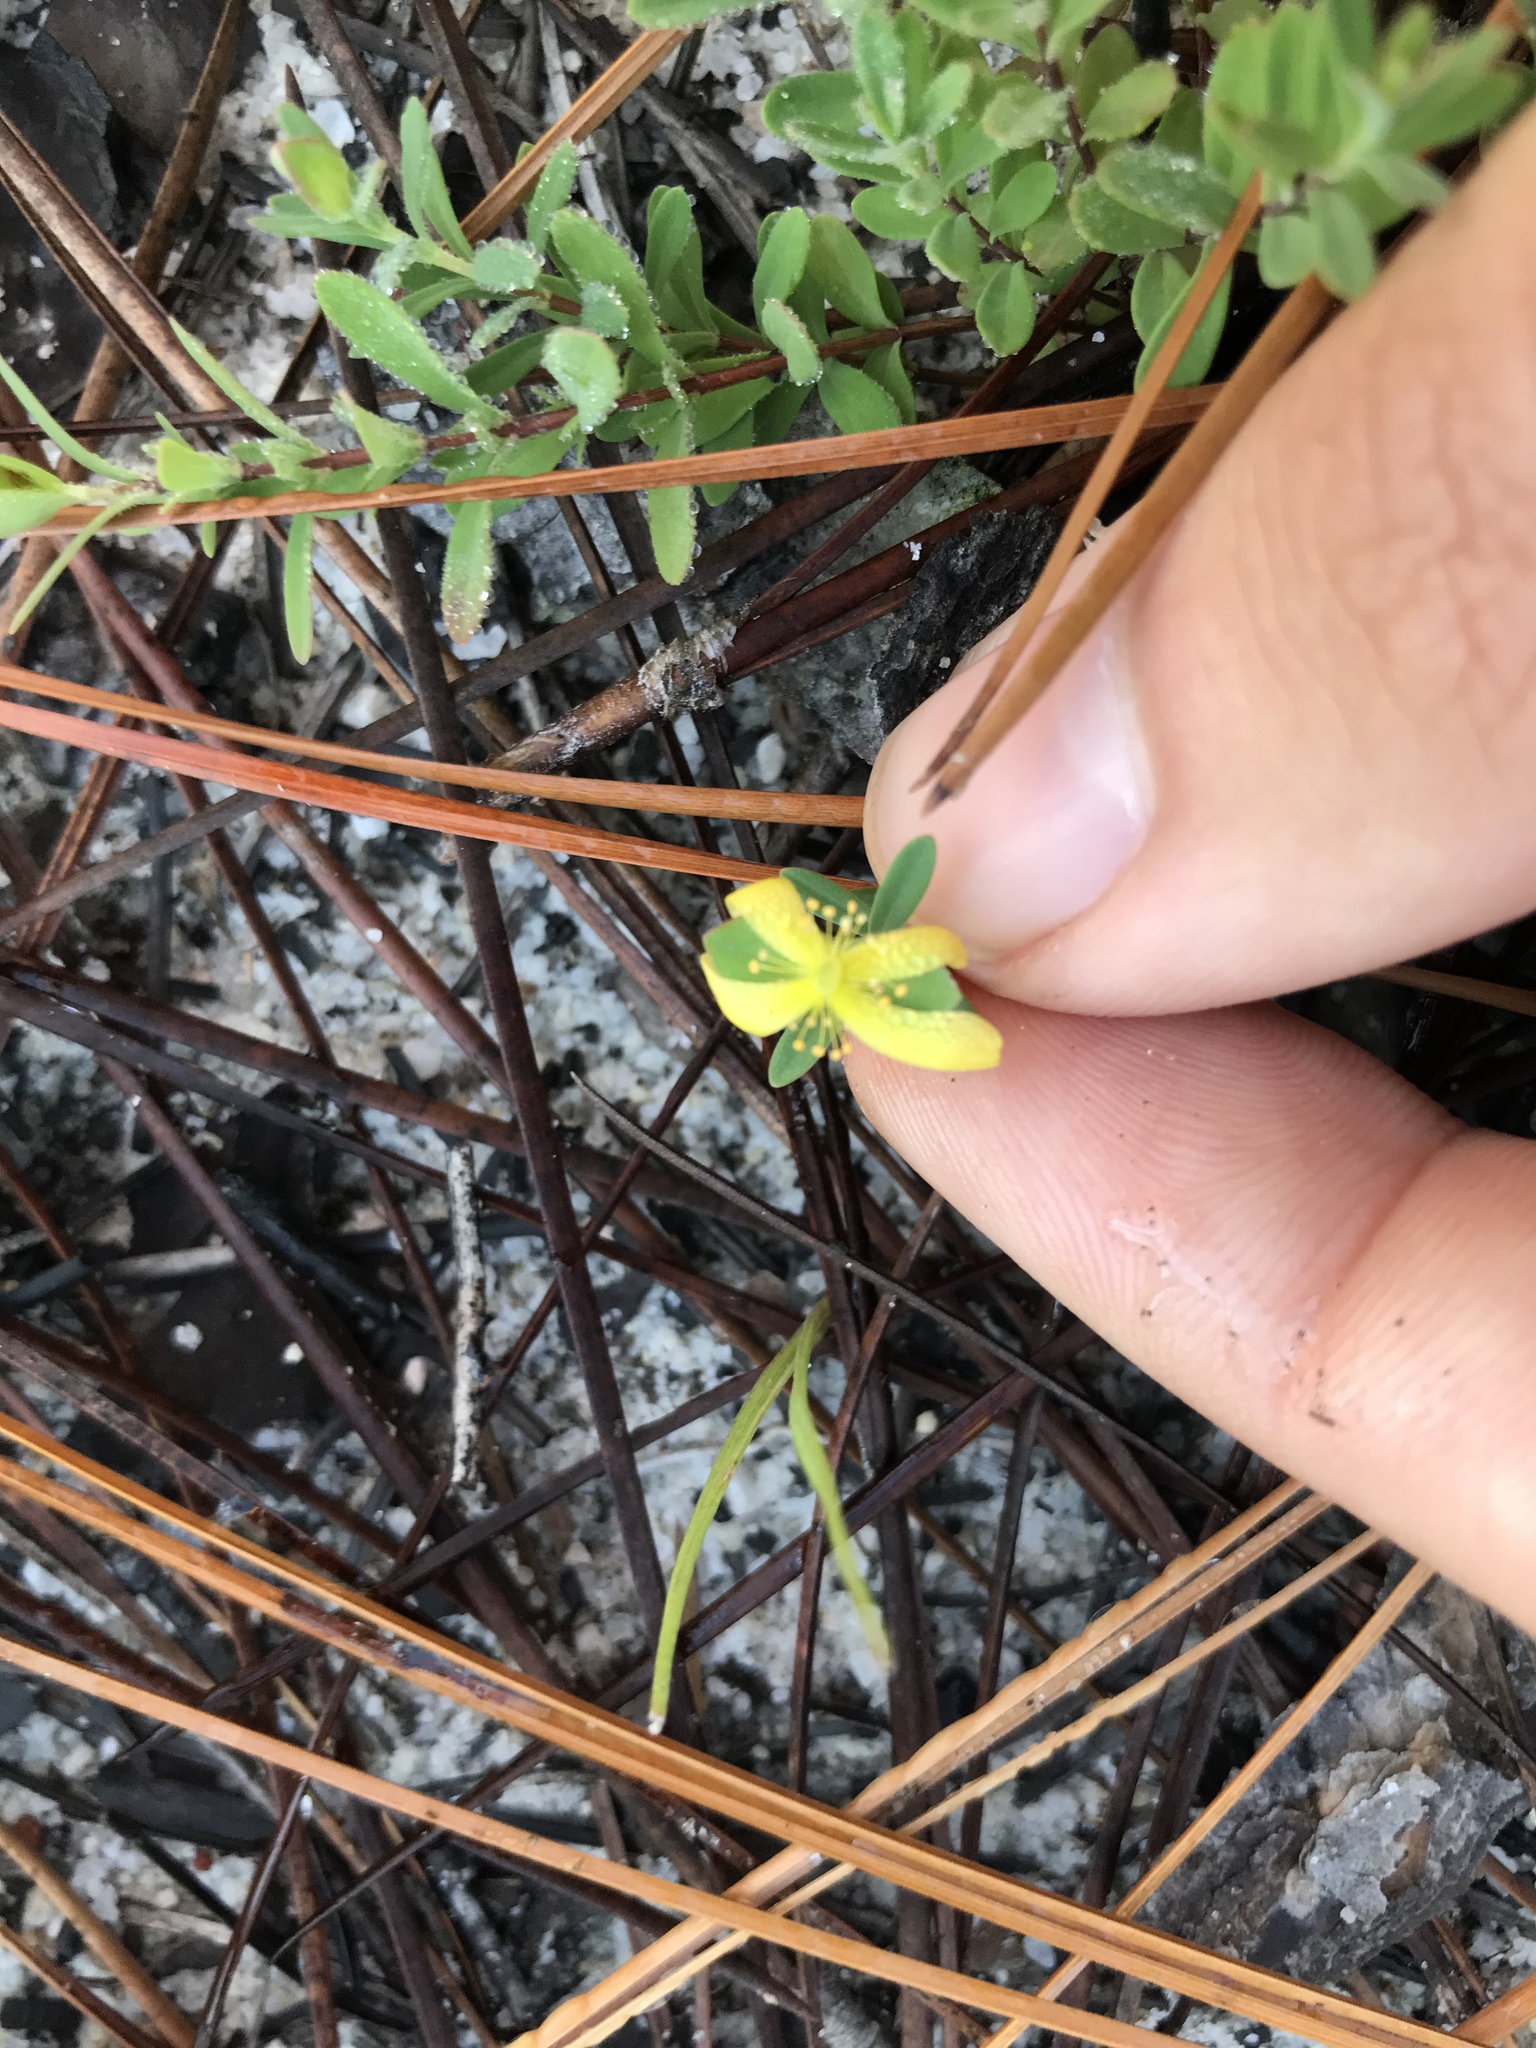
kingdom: Plantae
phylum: Tracheophyta
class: Magnoliopsida
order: Malpighiales
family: Hypericaceae
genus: Hypericum
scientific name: Hypericum hypericoides
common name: St. andrew's cross
